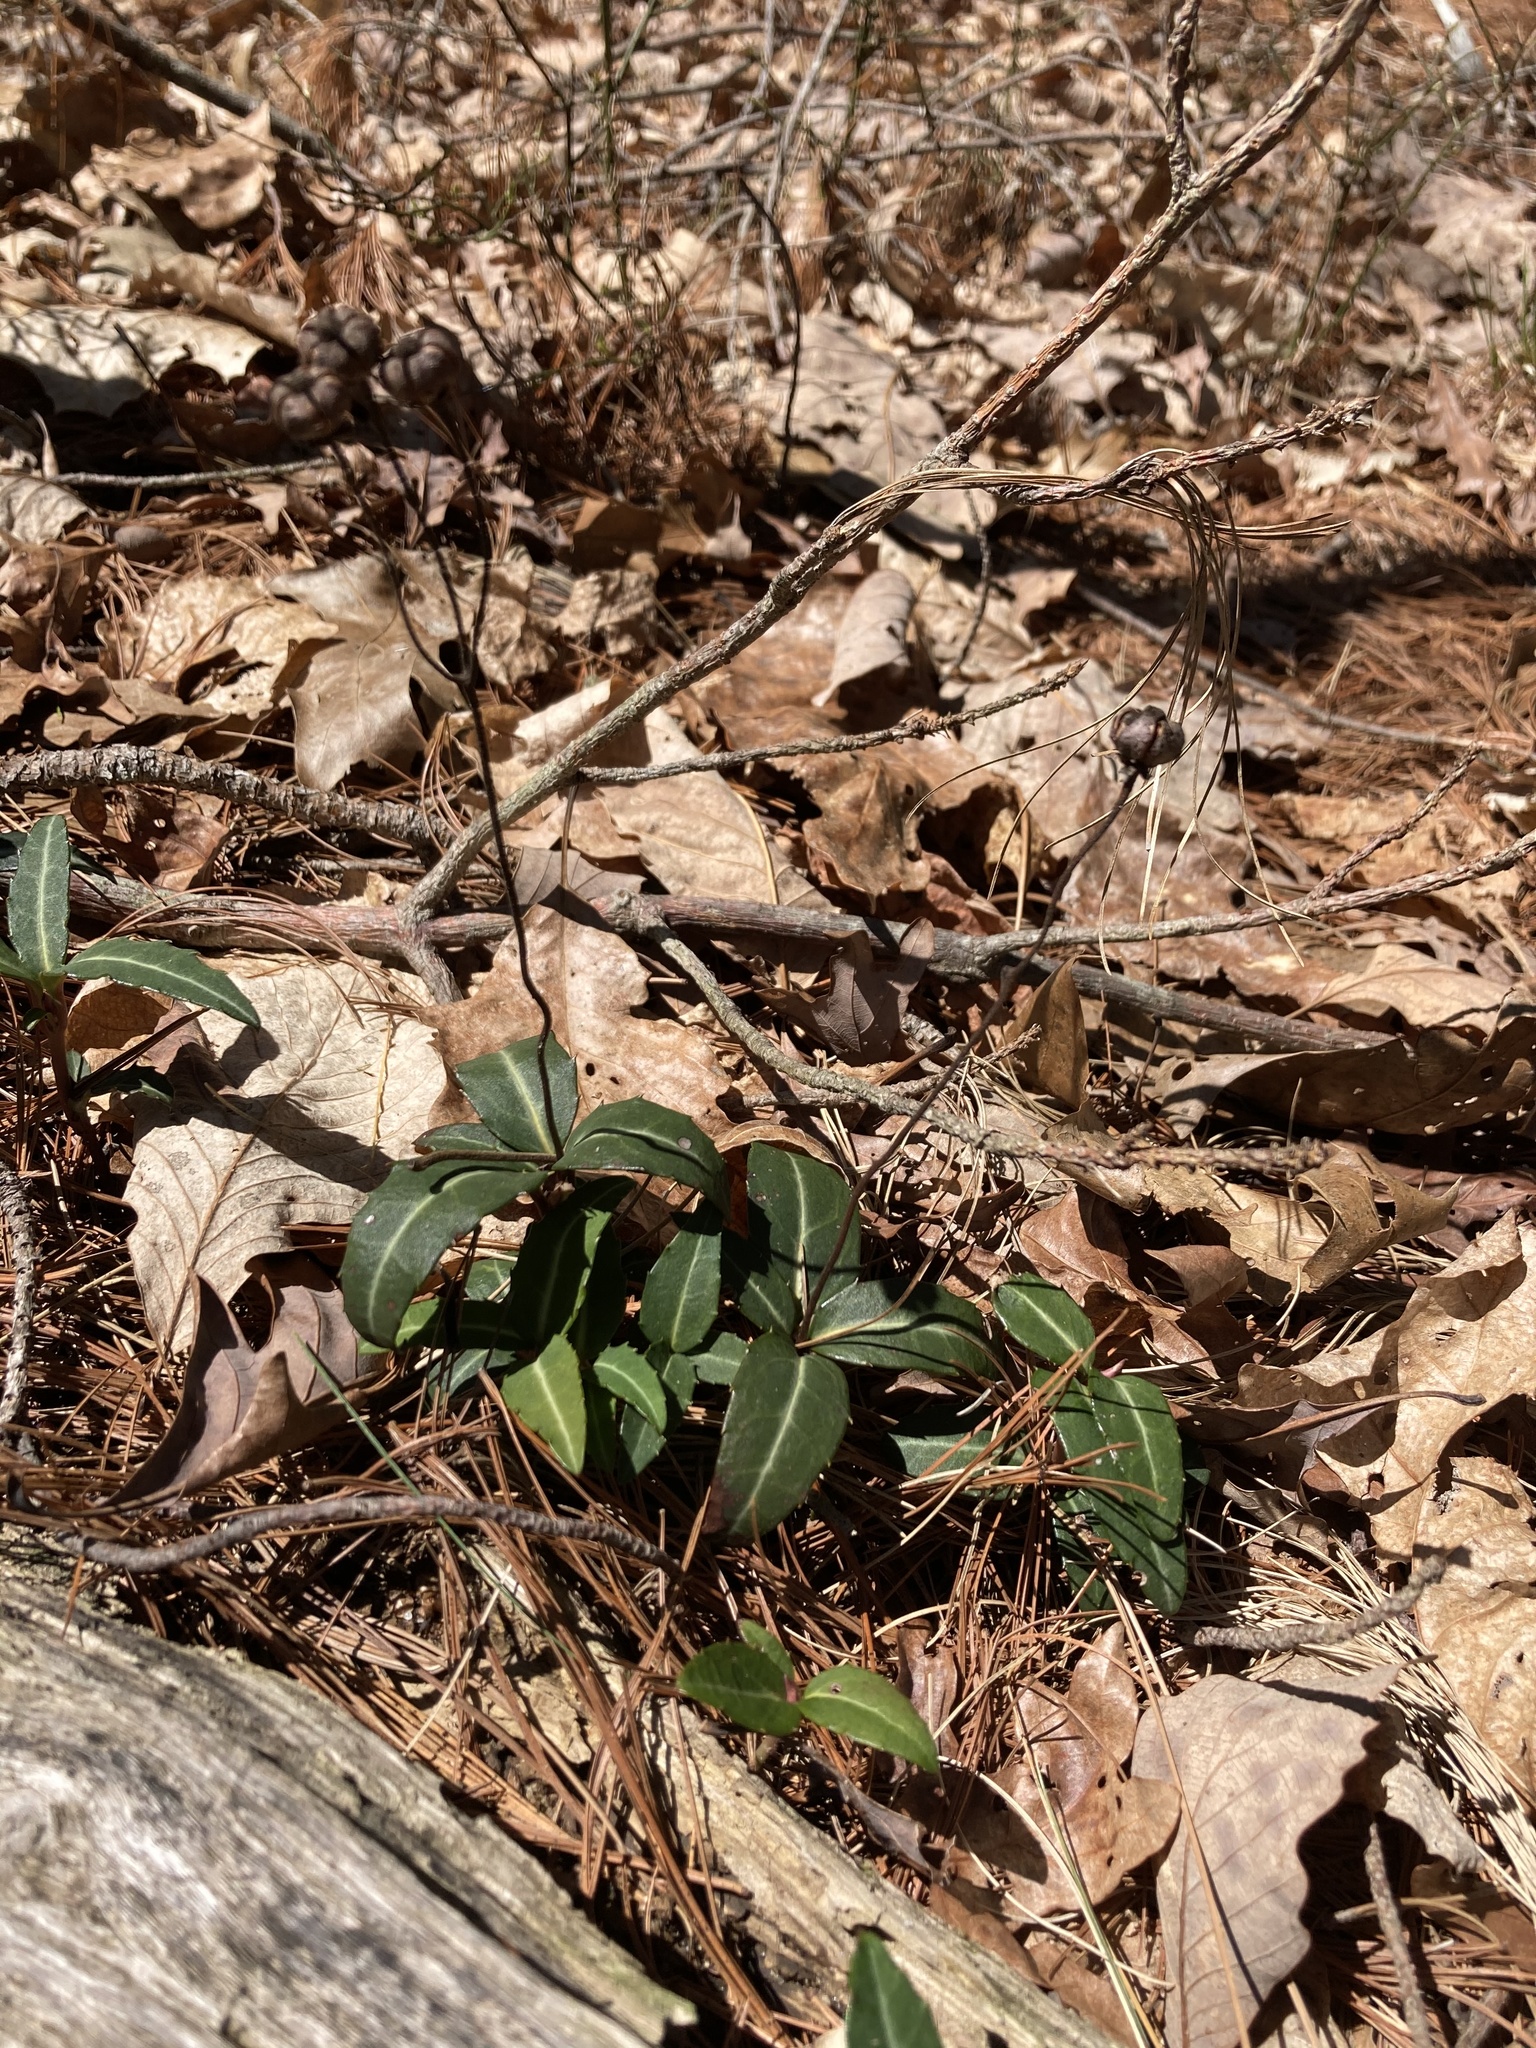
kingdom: Plantae
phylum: Tracheophyta
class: Magnoliopsida
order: Ericales
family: Ericaceae
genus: Chimaphila
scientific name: Chimaphila maculata
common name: Spotted pipsissewa
